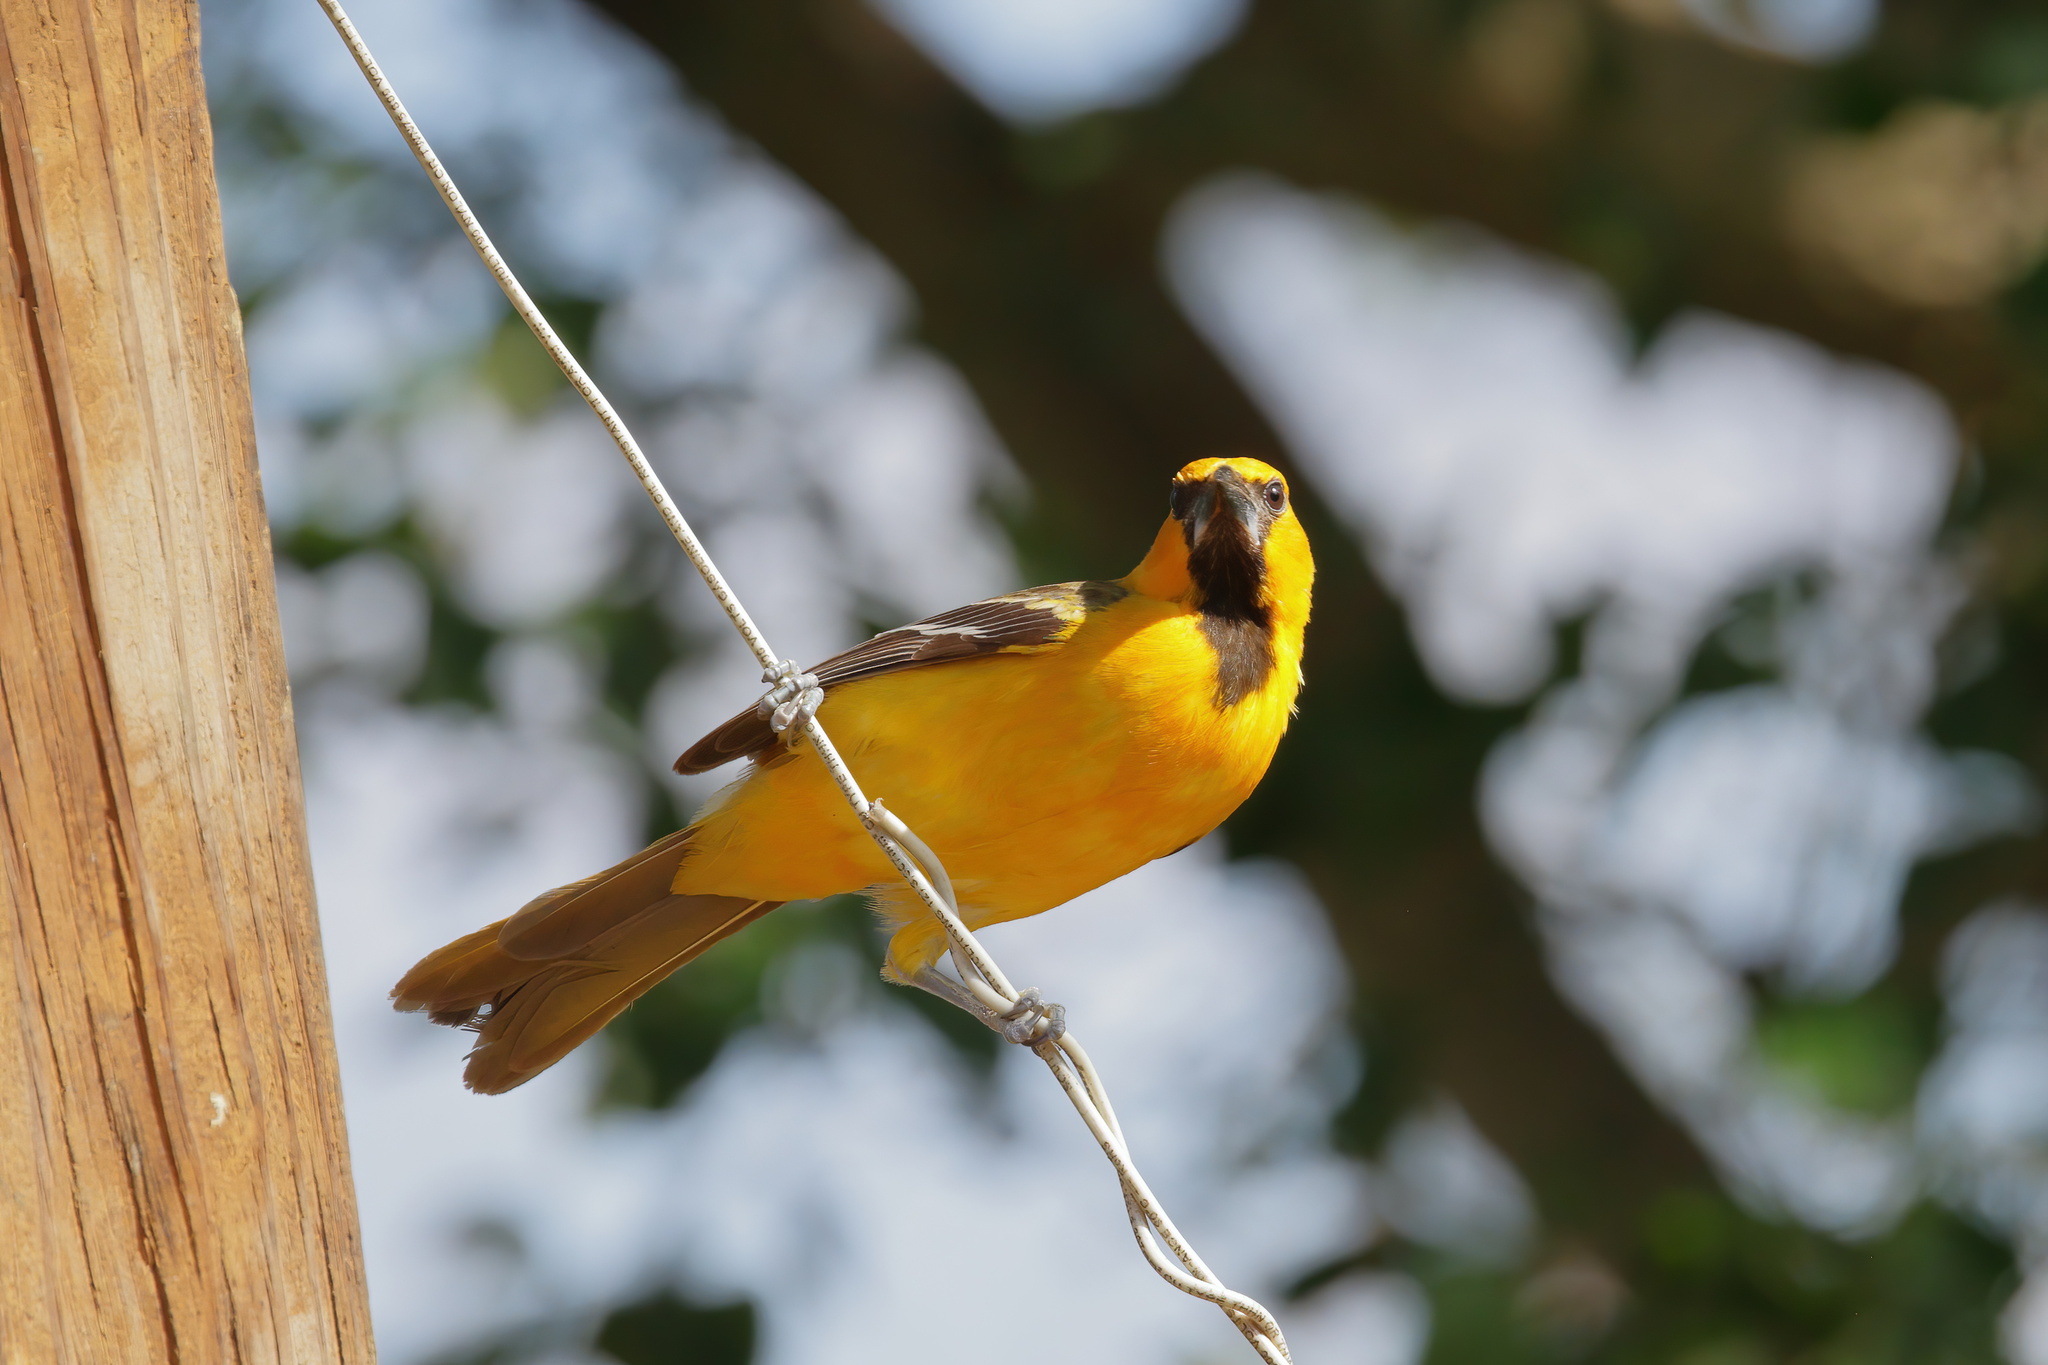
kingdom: Animalia
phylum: Chordata
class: Aves
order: Passeriformes
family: Icteridae
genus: Icterus
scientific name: Icterus gularis
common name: Altamira oriole
